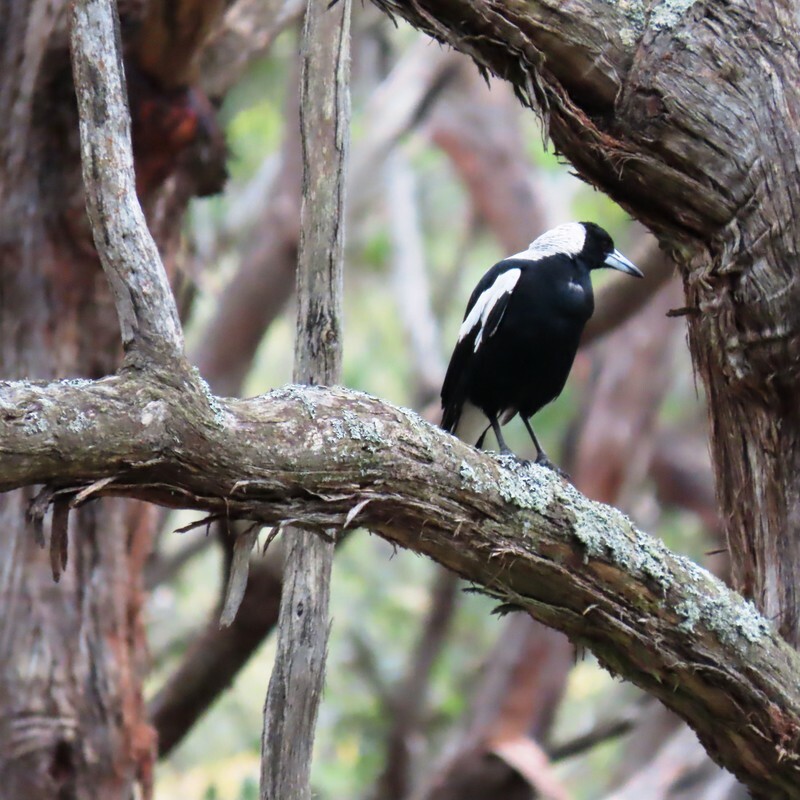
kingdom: Animalia
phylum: Chordata
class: Aves
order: Passeriformes
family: Cracticidae
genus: Gymnorhina
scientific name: Gymnorhina tibicen
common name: Australian magpie
